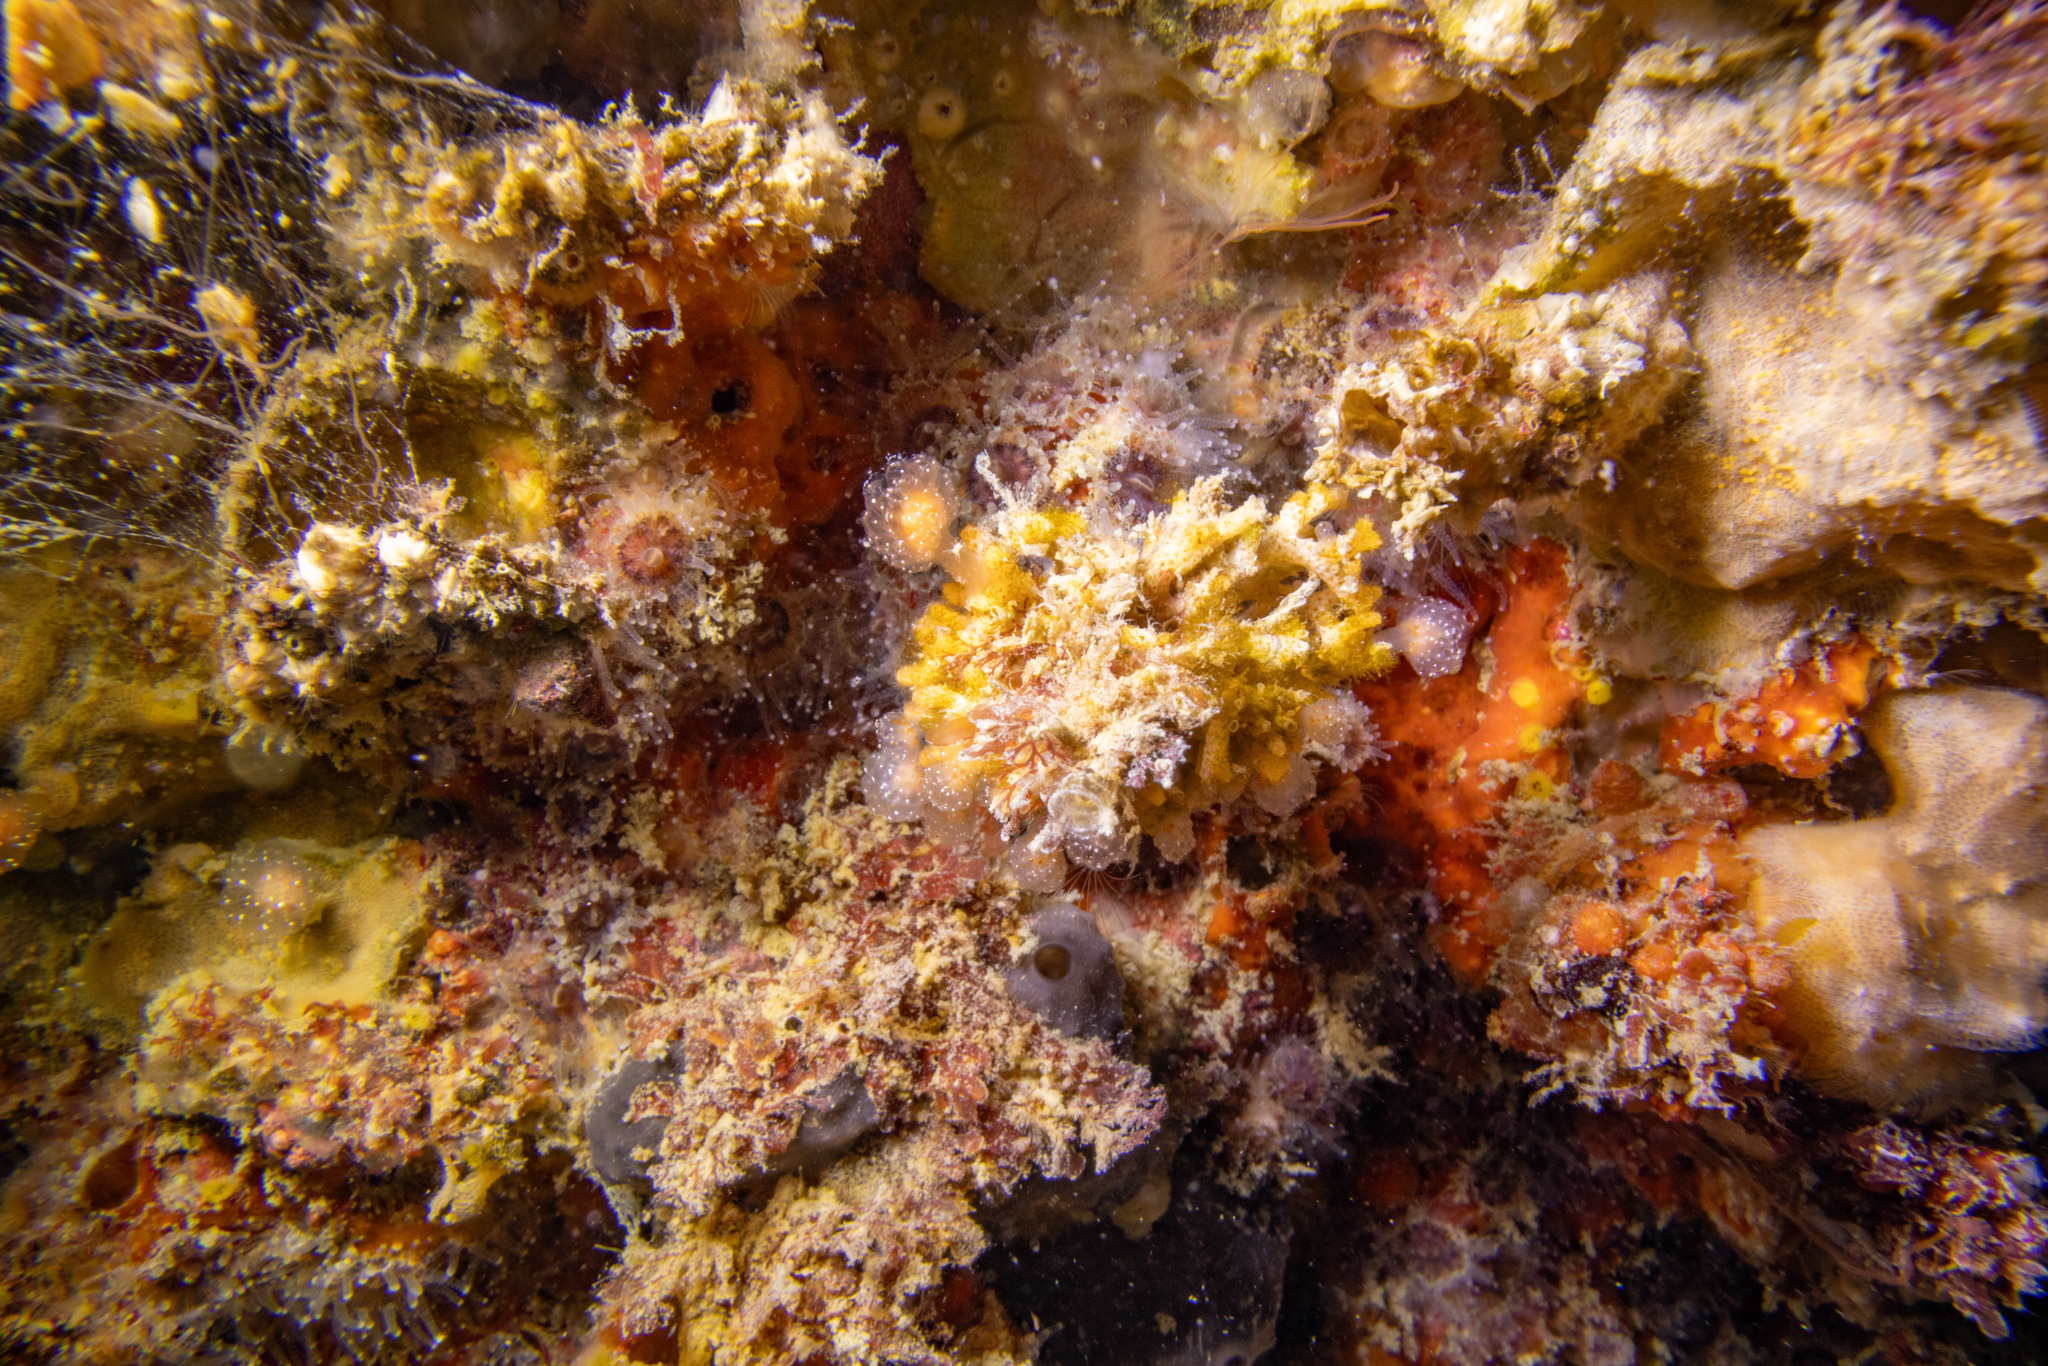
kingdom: Animalia
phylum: Bryozoa
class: Stenolaemata
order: Cyclostomatida
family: Diaperoeciidae
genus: Diaperoecia
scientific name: Diaperoecia purpurascens
